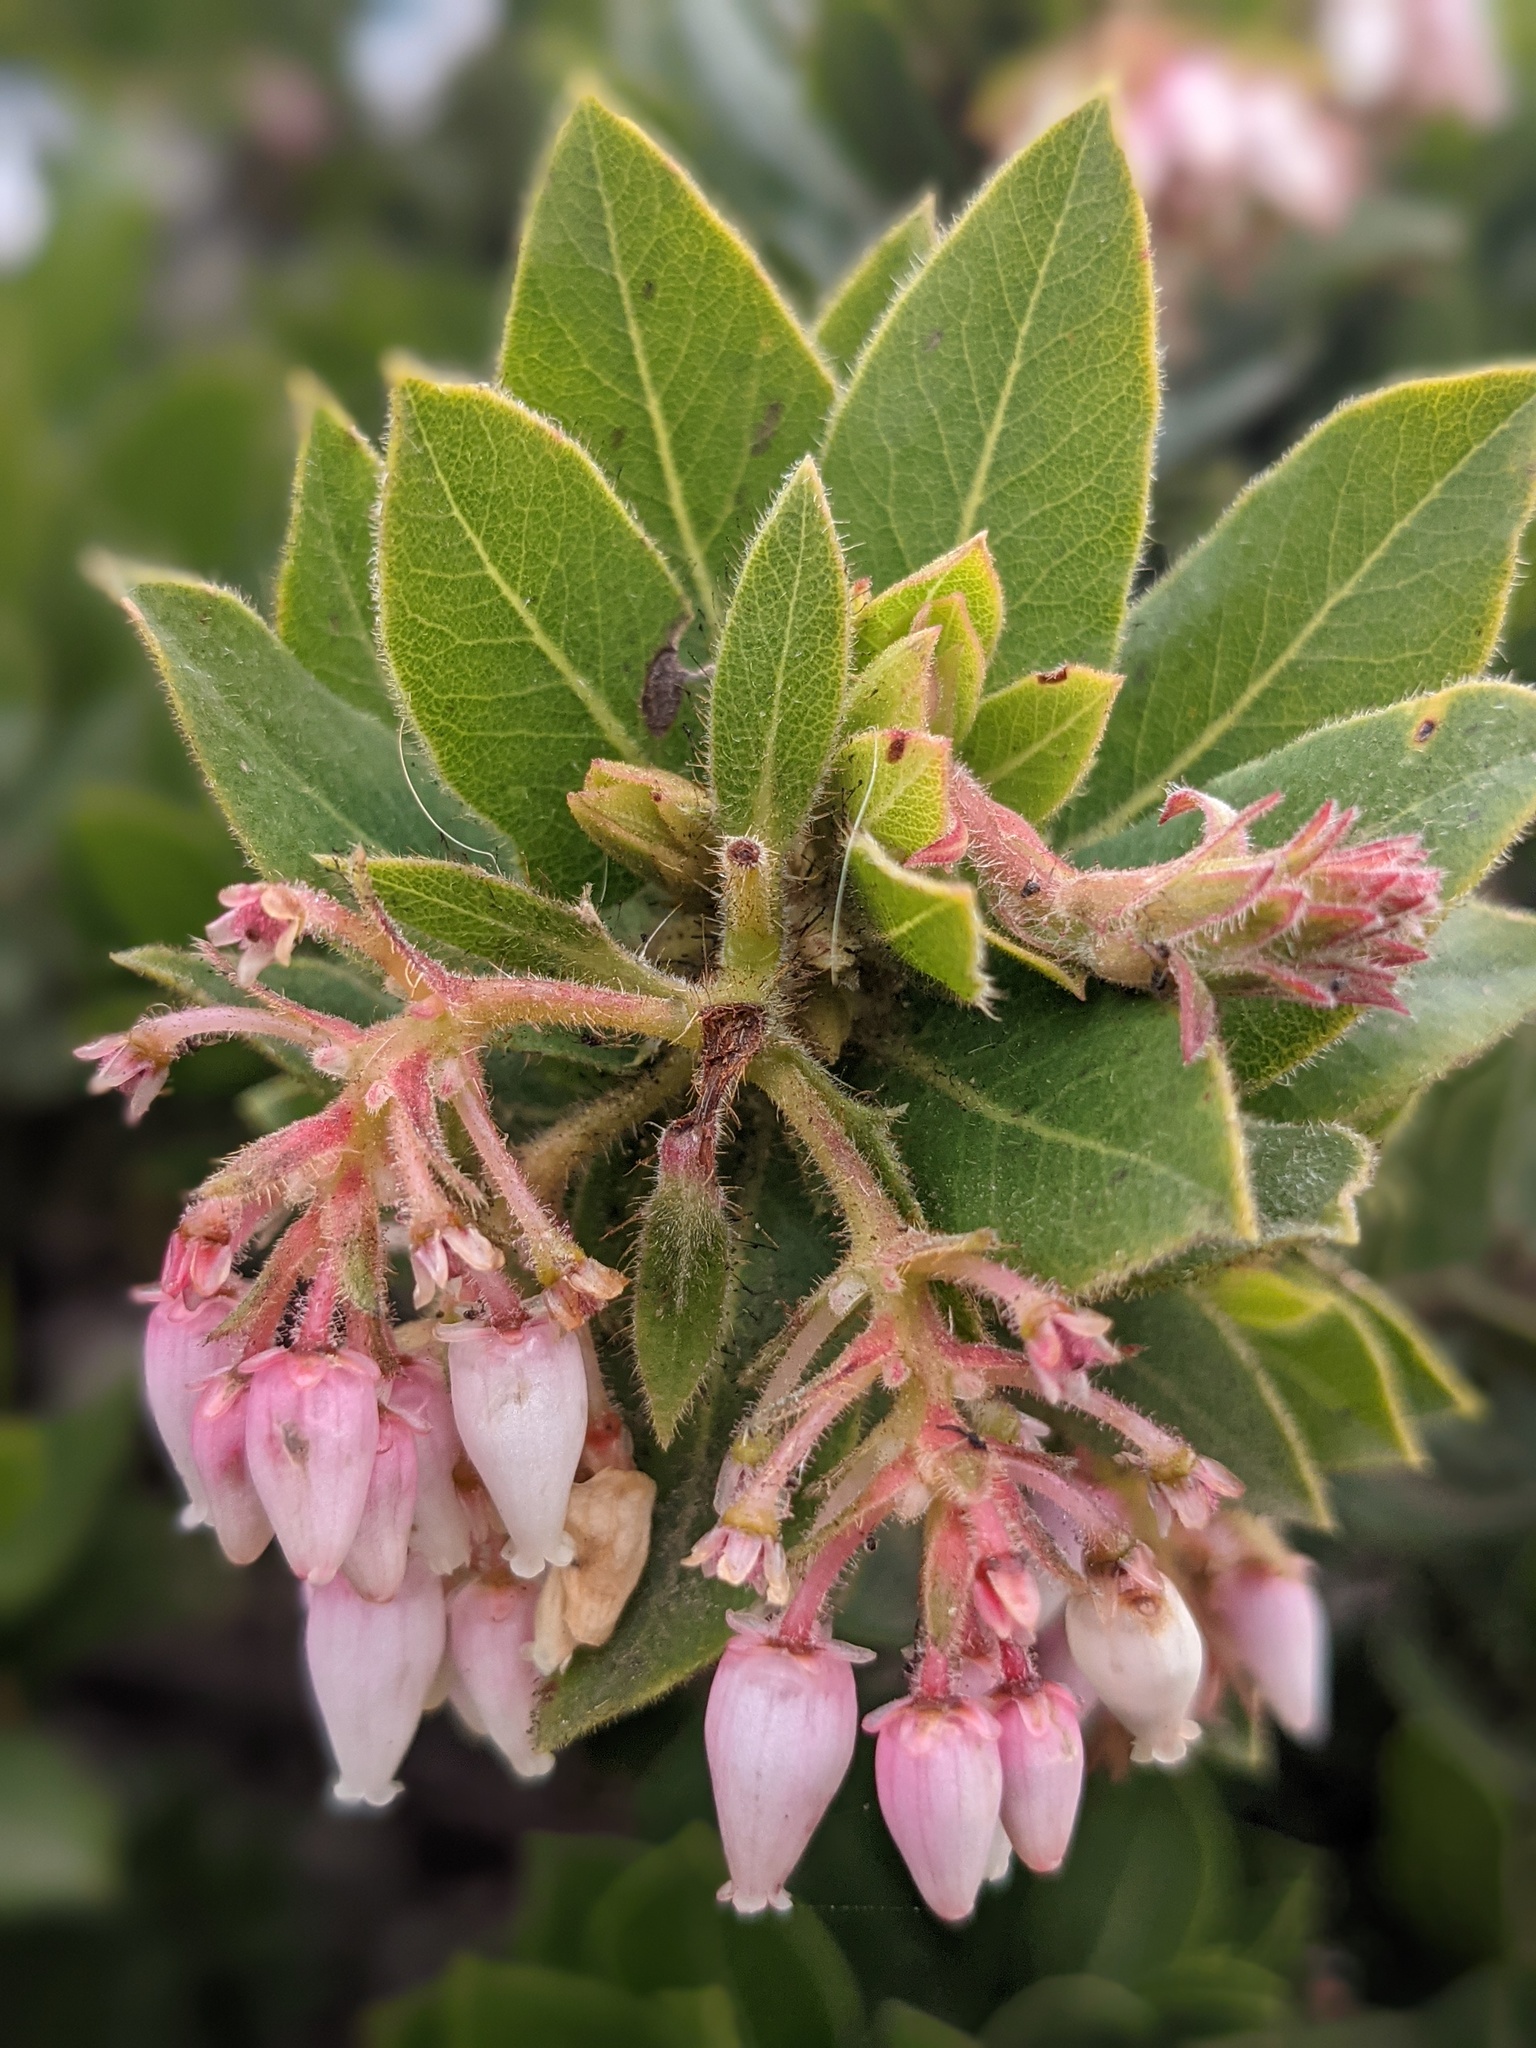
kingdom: Plantae
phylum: Tracheophyta
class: Magnoliopsida
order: Ericales
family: Ericaceae
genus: Arctostaphylos
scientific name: Arctostaphylos montaraensis
